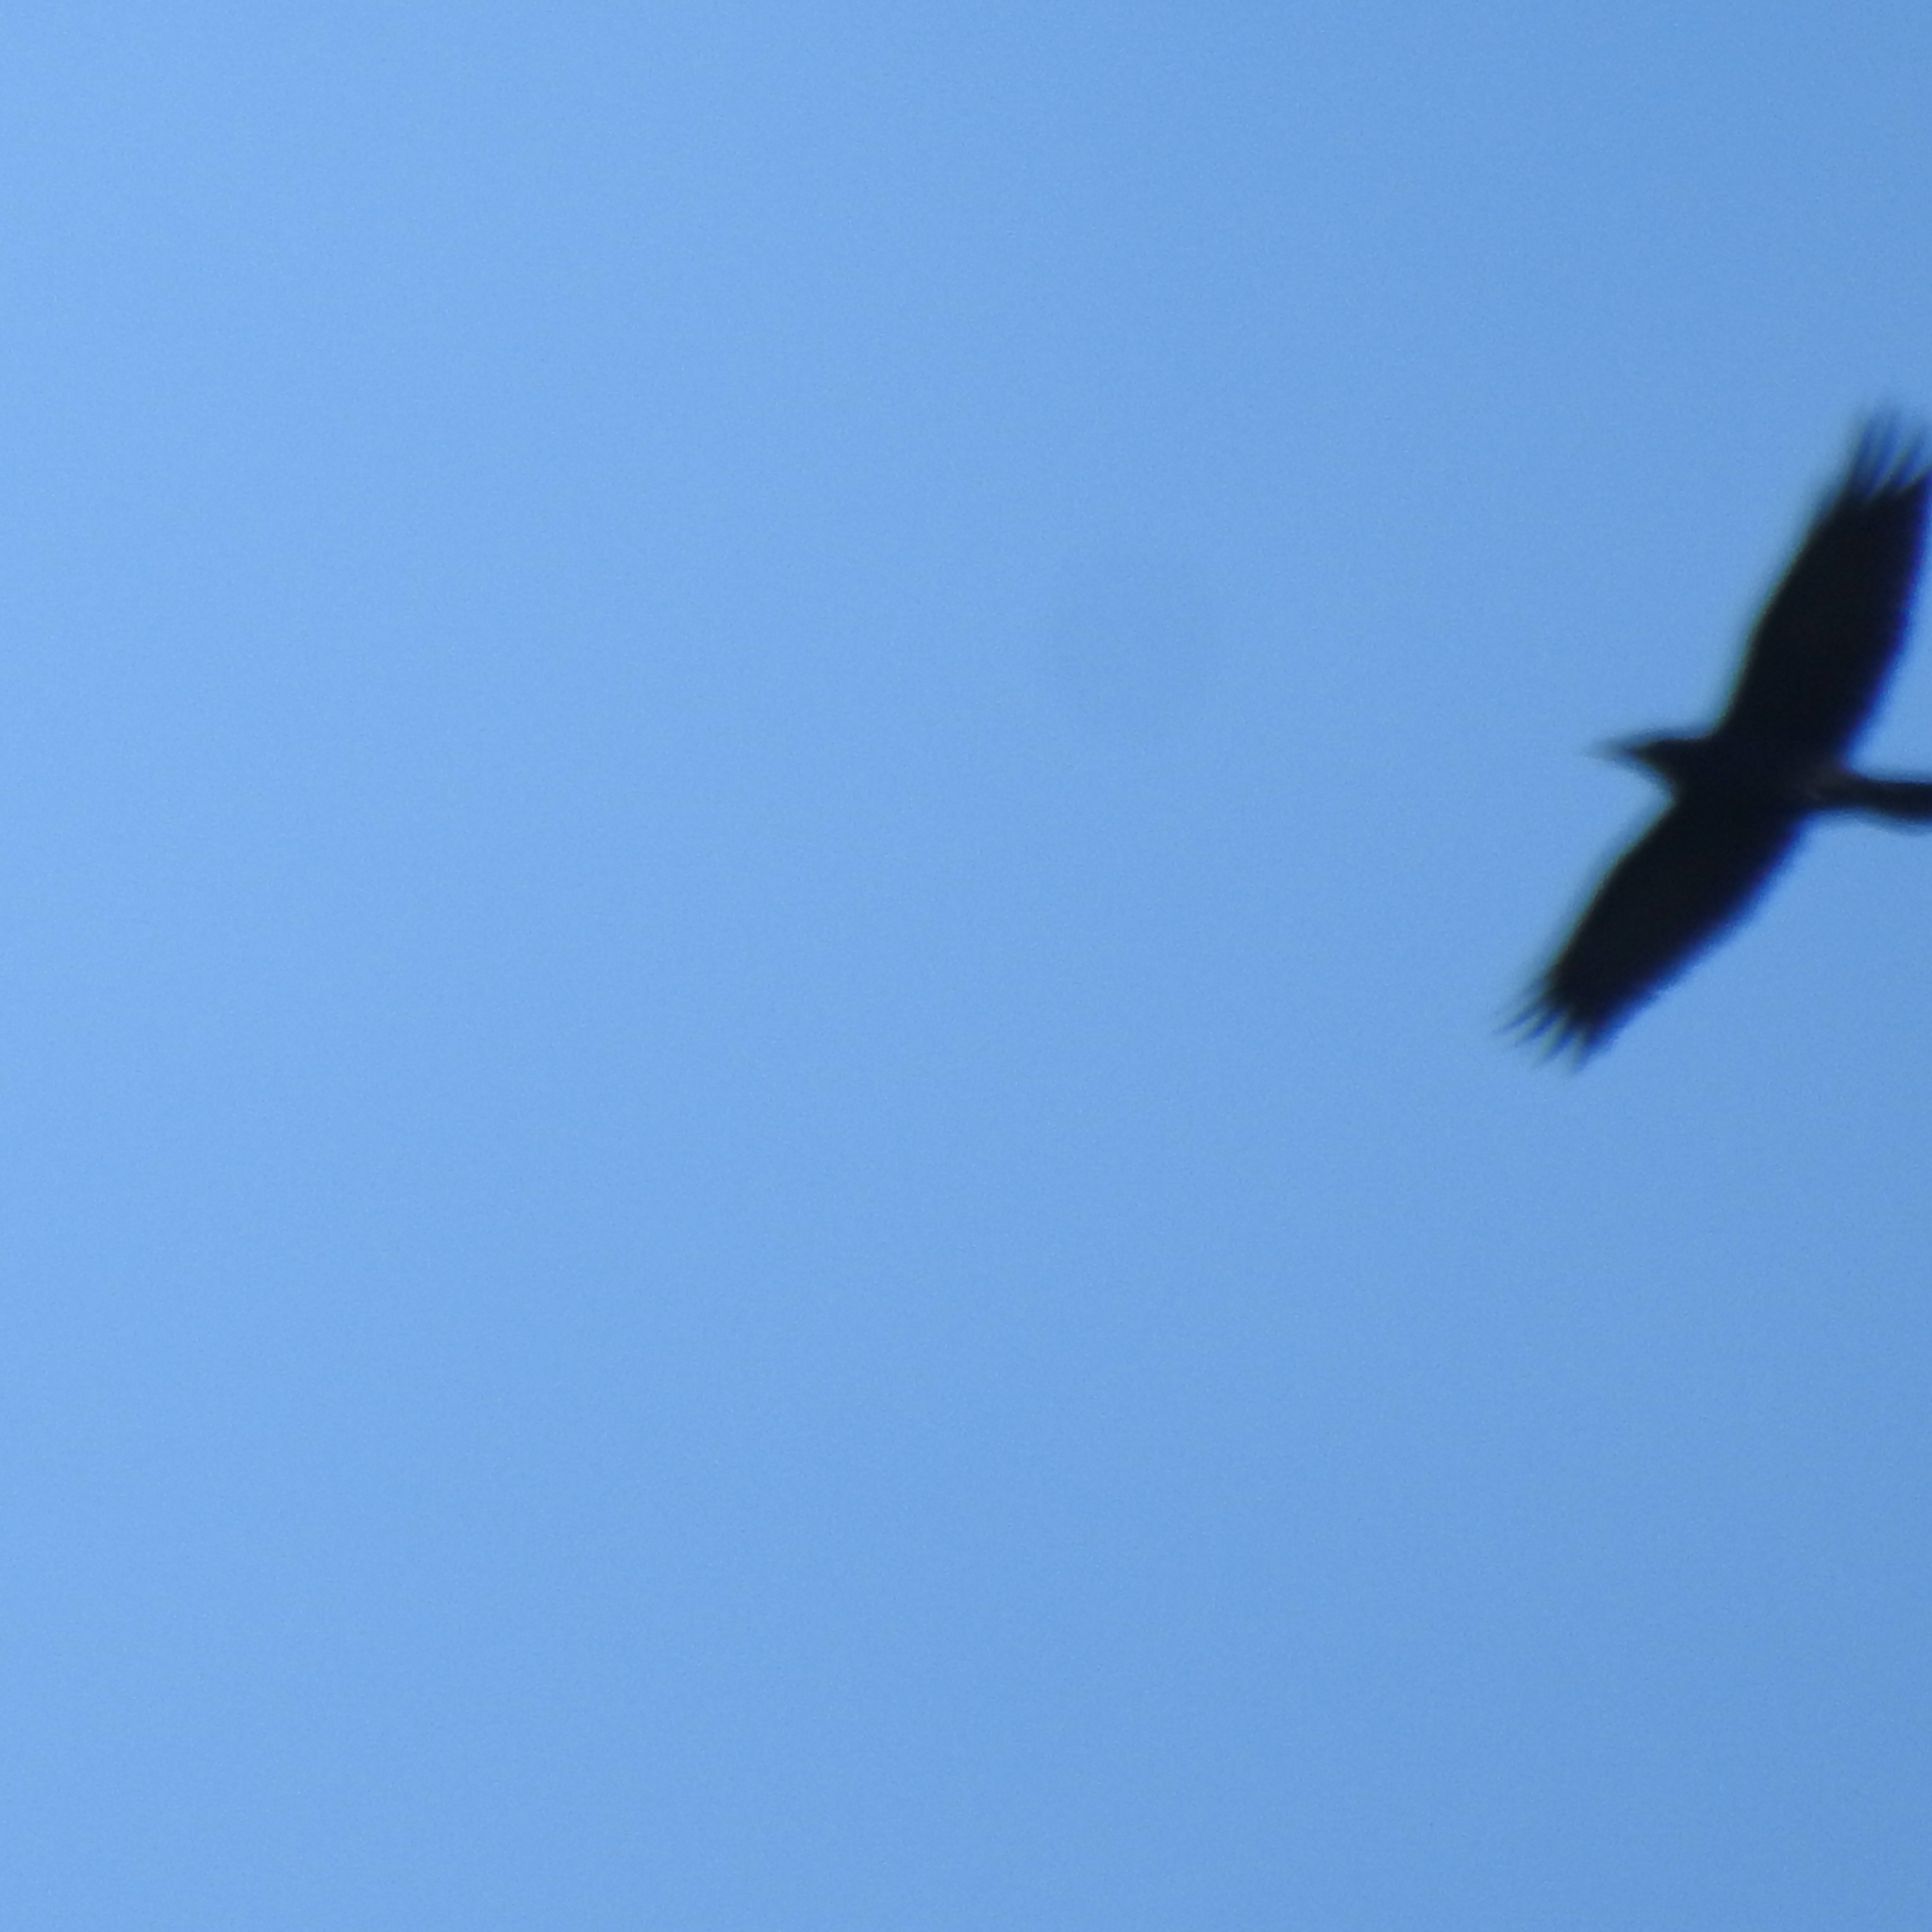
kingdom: Animalia
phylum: Chordata
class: Aves
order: Passeriformes
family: Corvidae
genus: Corvus
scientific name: Corvus brachyrhynchos
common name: American crow
